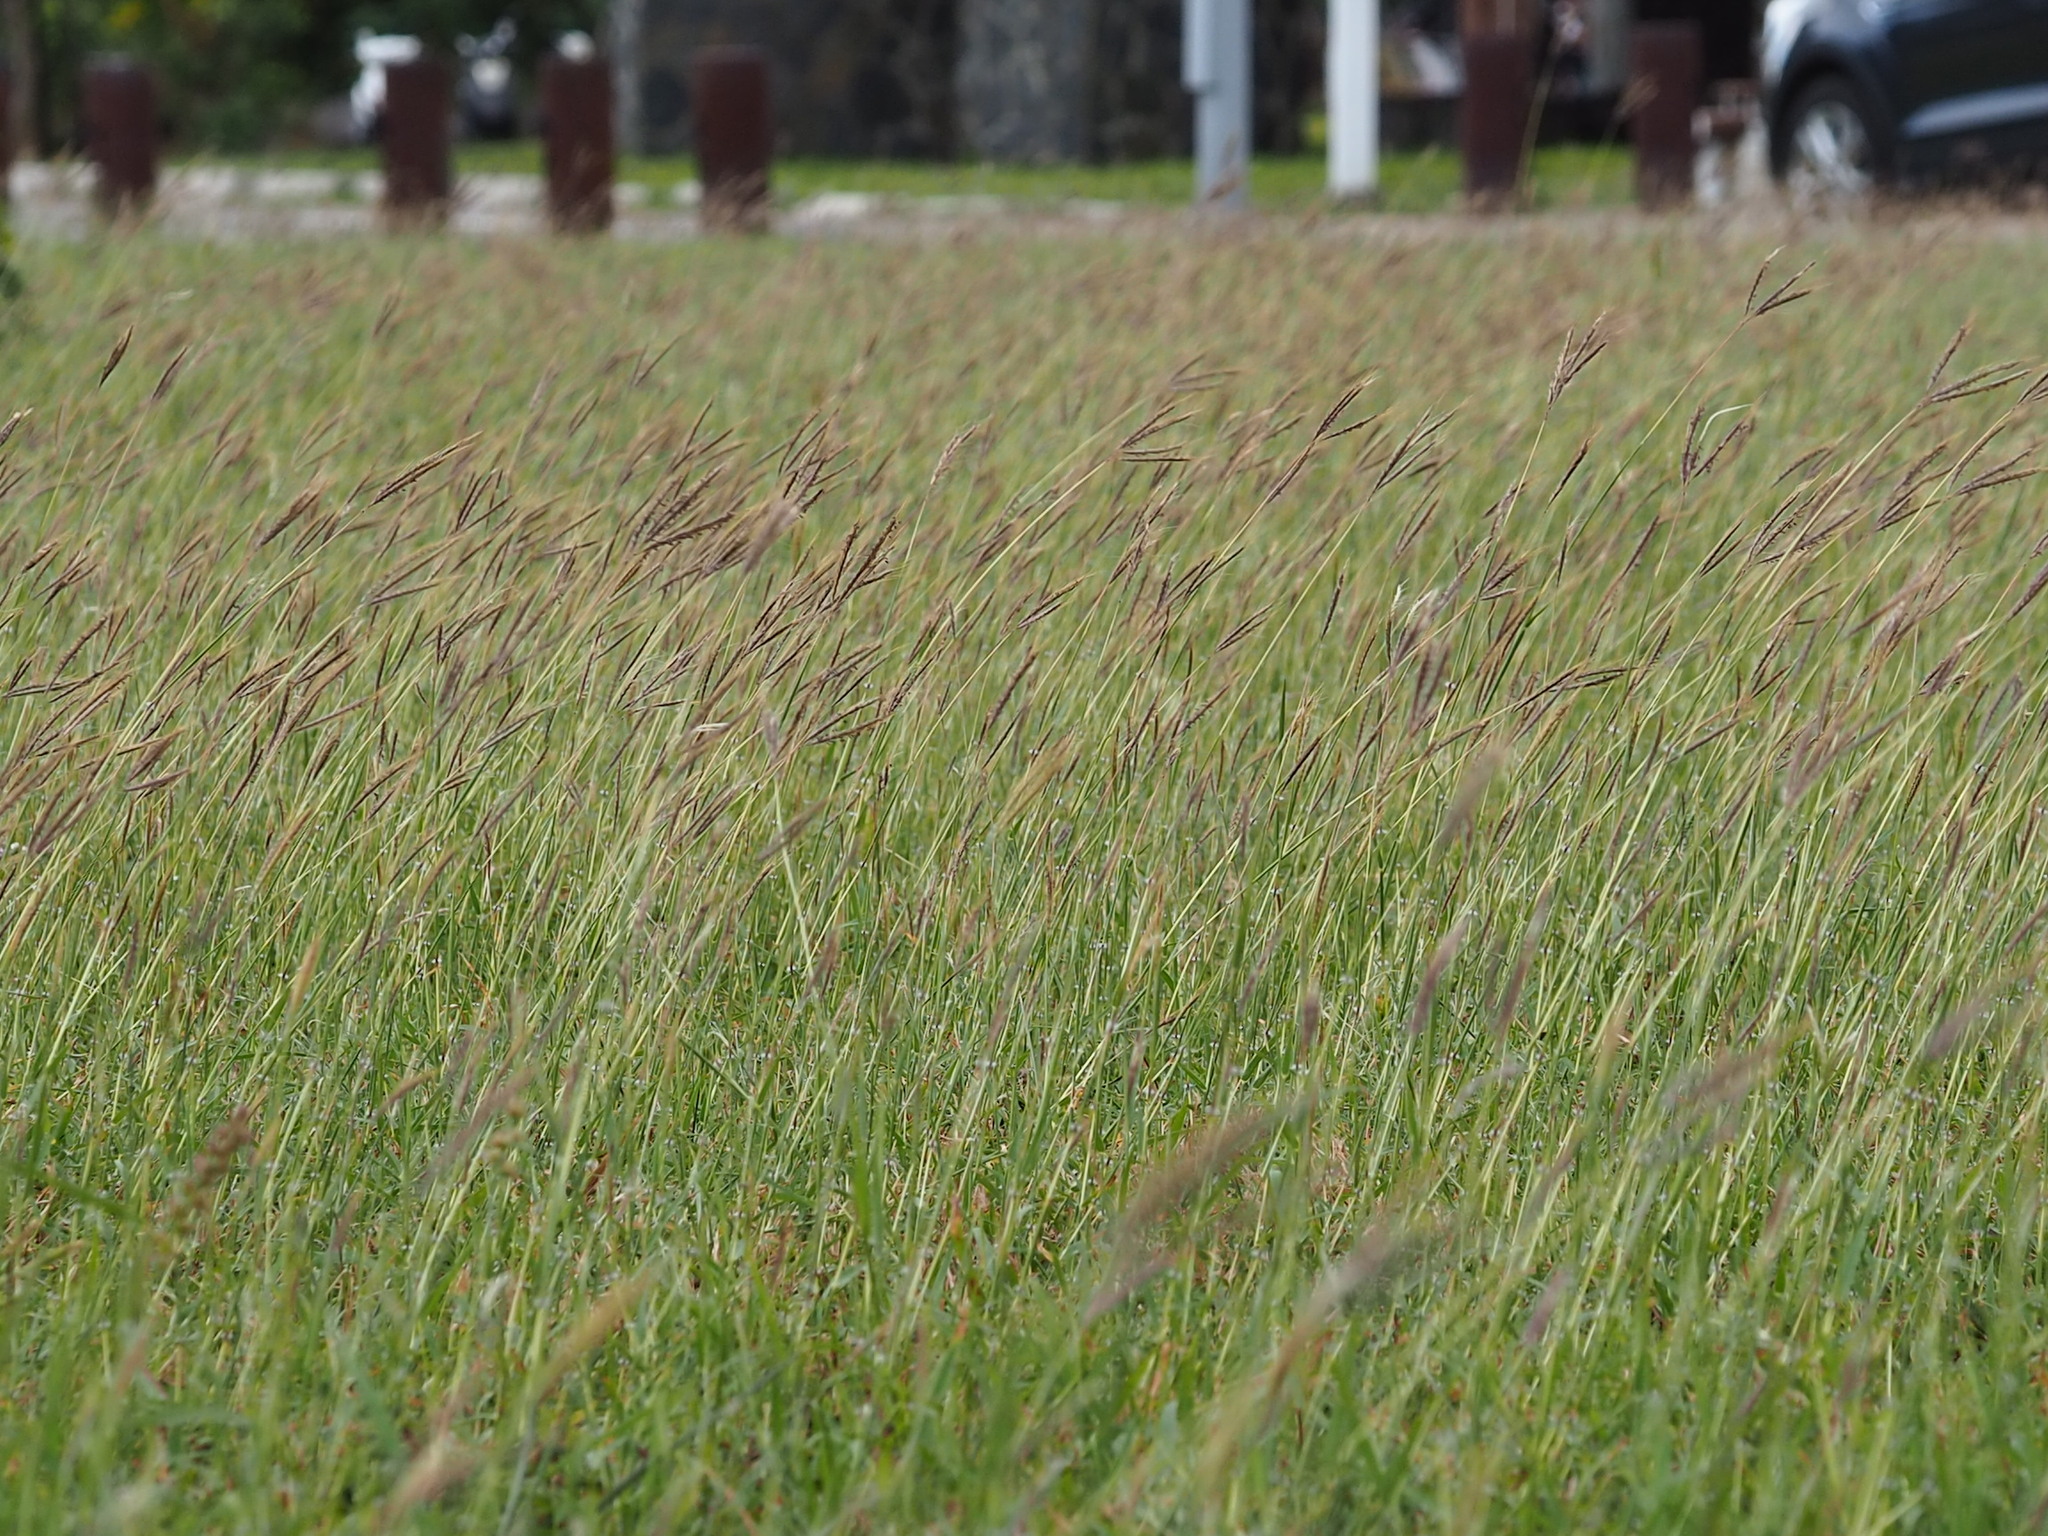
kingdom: Plantae
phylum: Tracheophyta
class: Liliopsida
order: Poales
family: Poaceae
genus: Dichanthium
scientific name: Dichanthium annulatum
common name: Kleberg's bluestem
